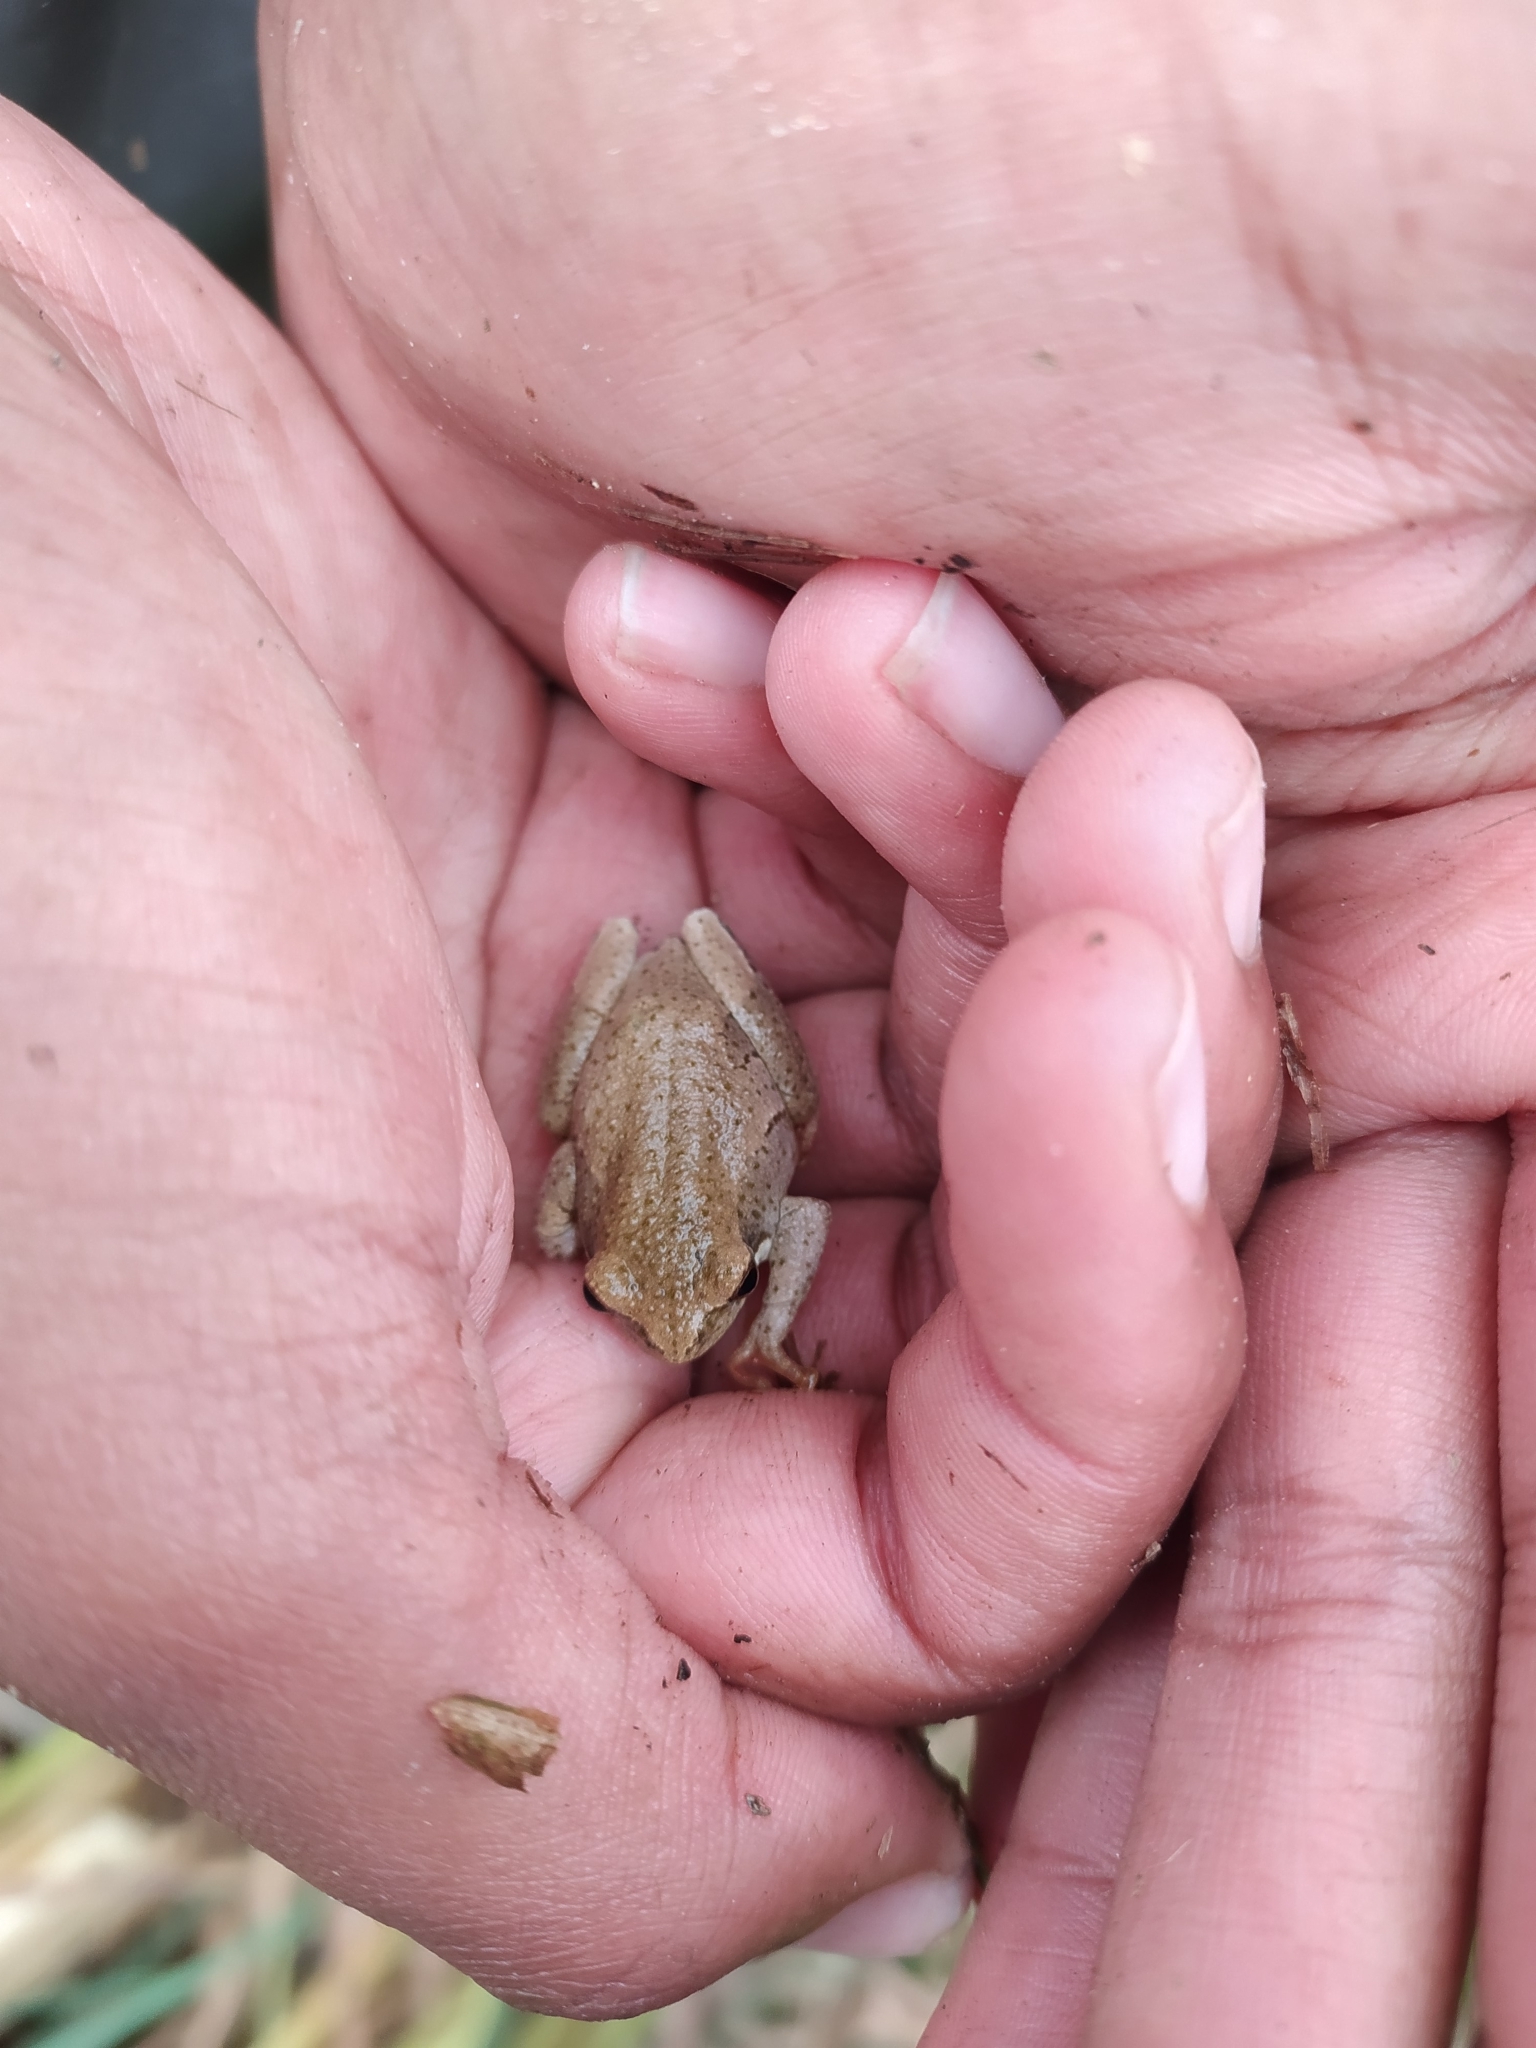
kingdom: Animalia
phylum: Chordata
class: Amphibia
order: Anura
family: Hyperoliidae
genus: Hyperolius
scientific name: Hyperolius marmoratus
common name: Painted reed frog
